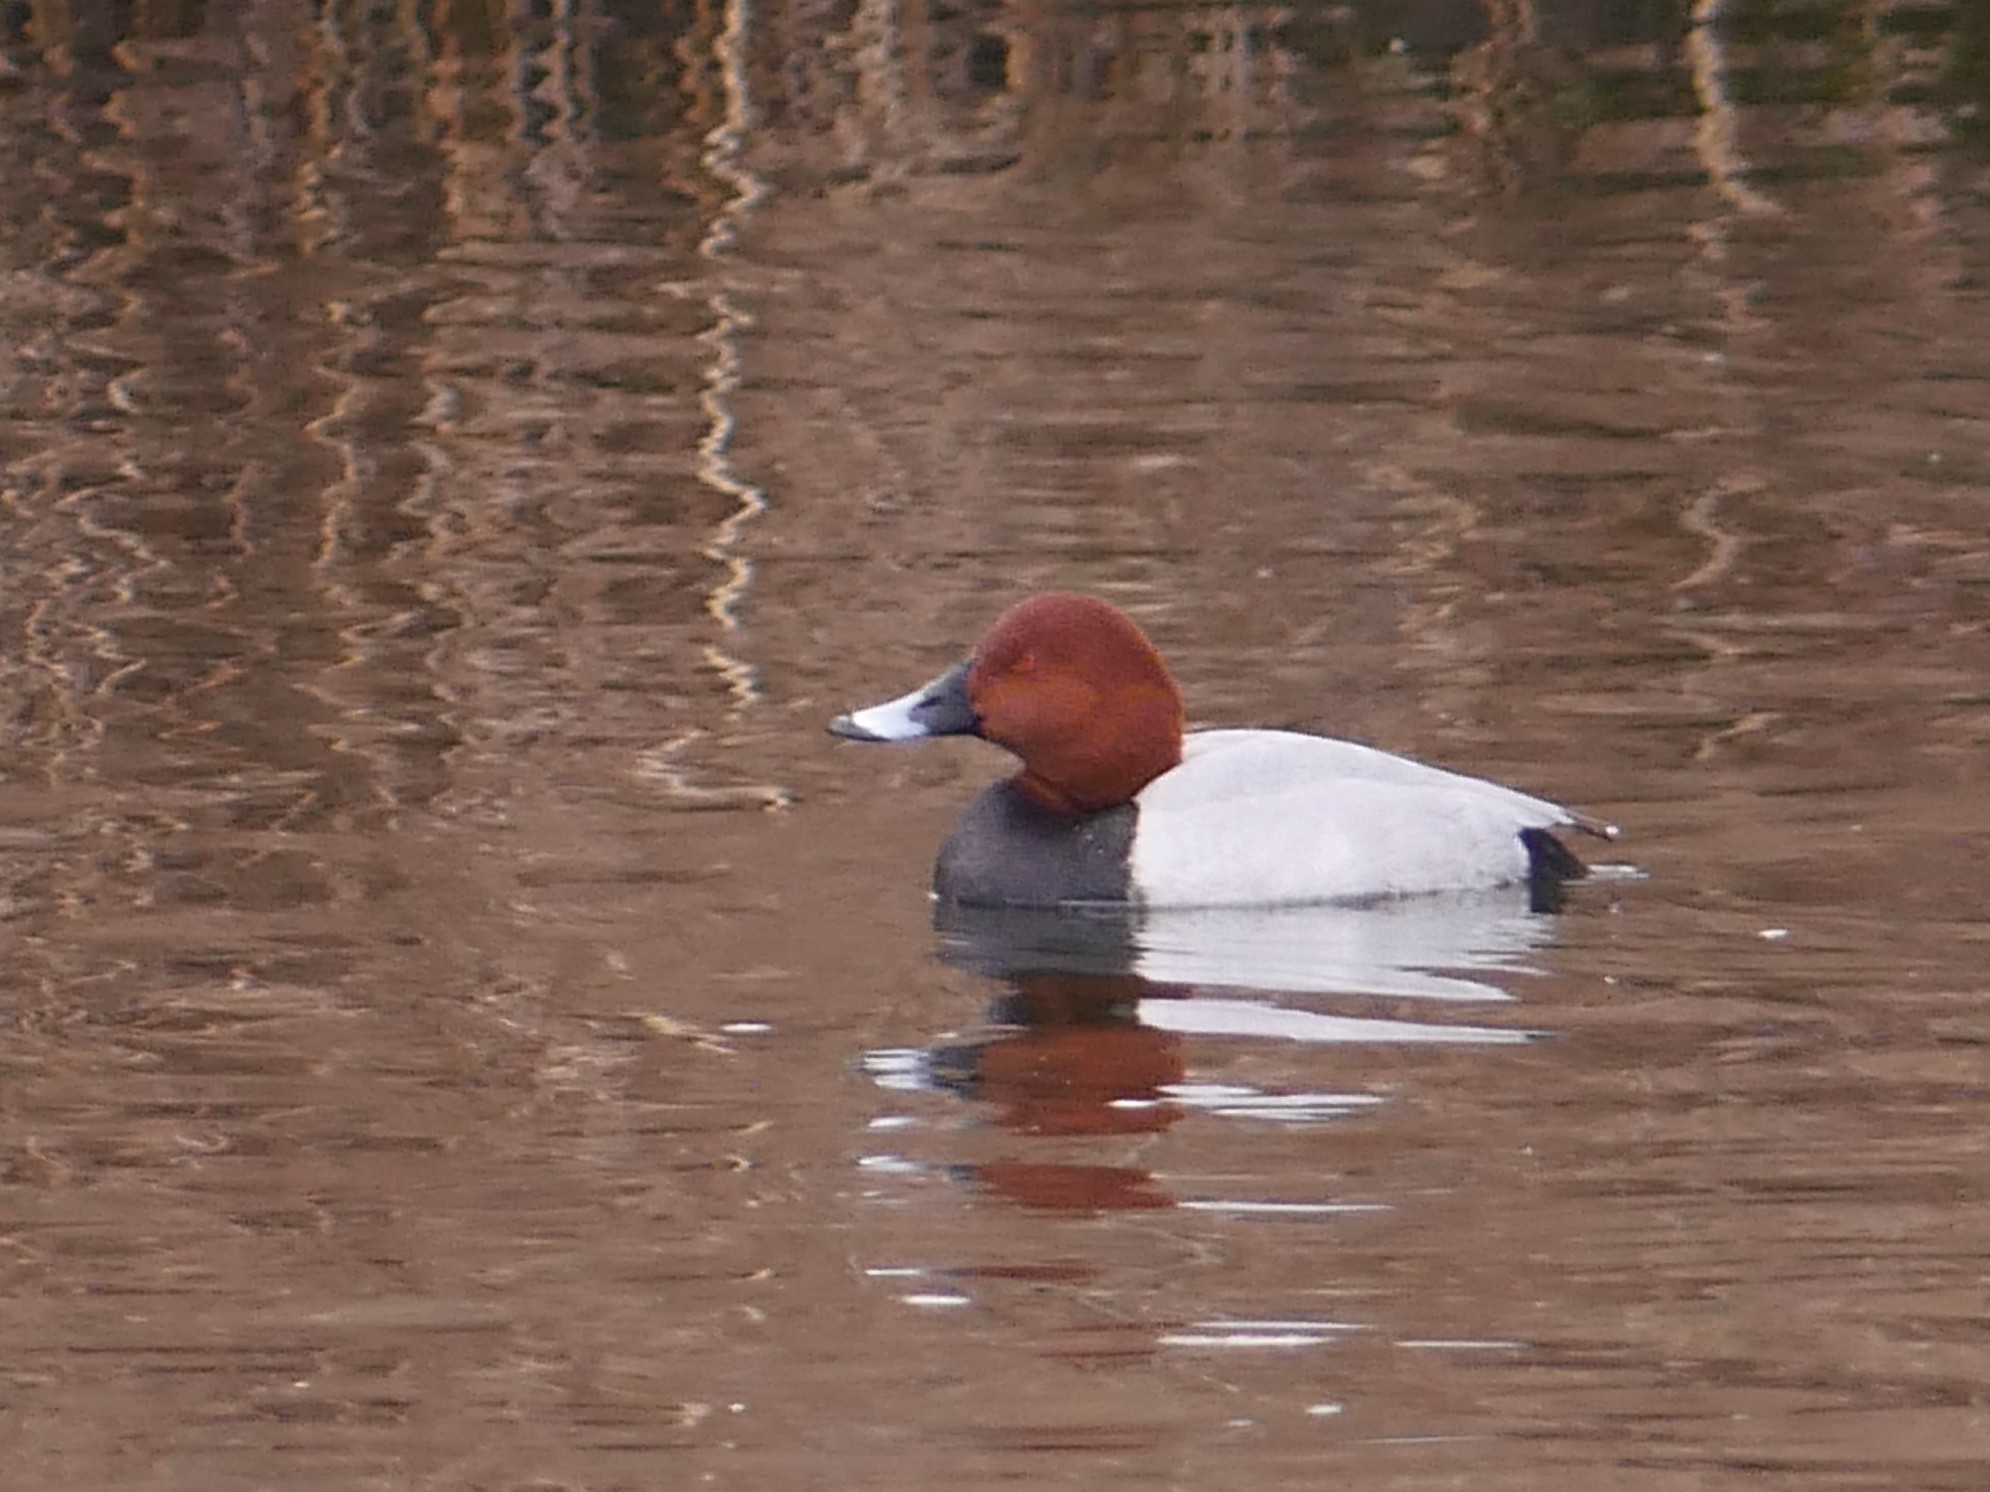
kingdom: Animalia
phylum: Chordata
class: Aves
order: Anseriformes
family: Anatidae
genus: Aythya
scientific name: Aythya ferina
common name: Common pochard
